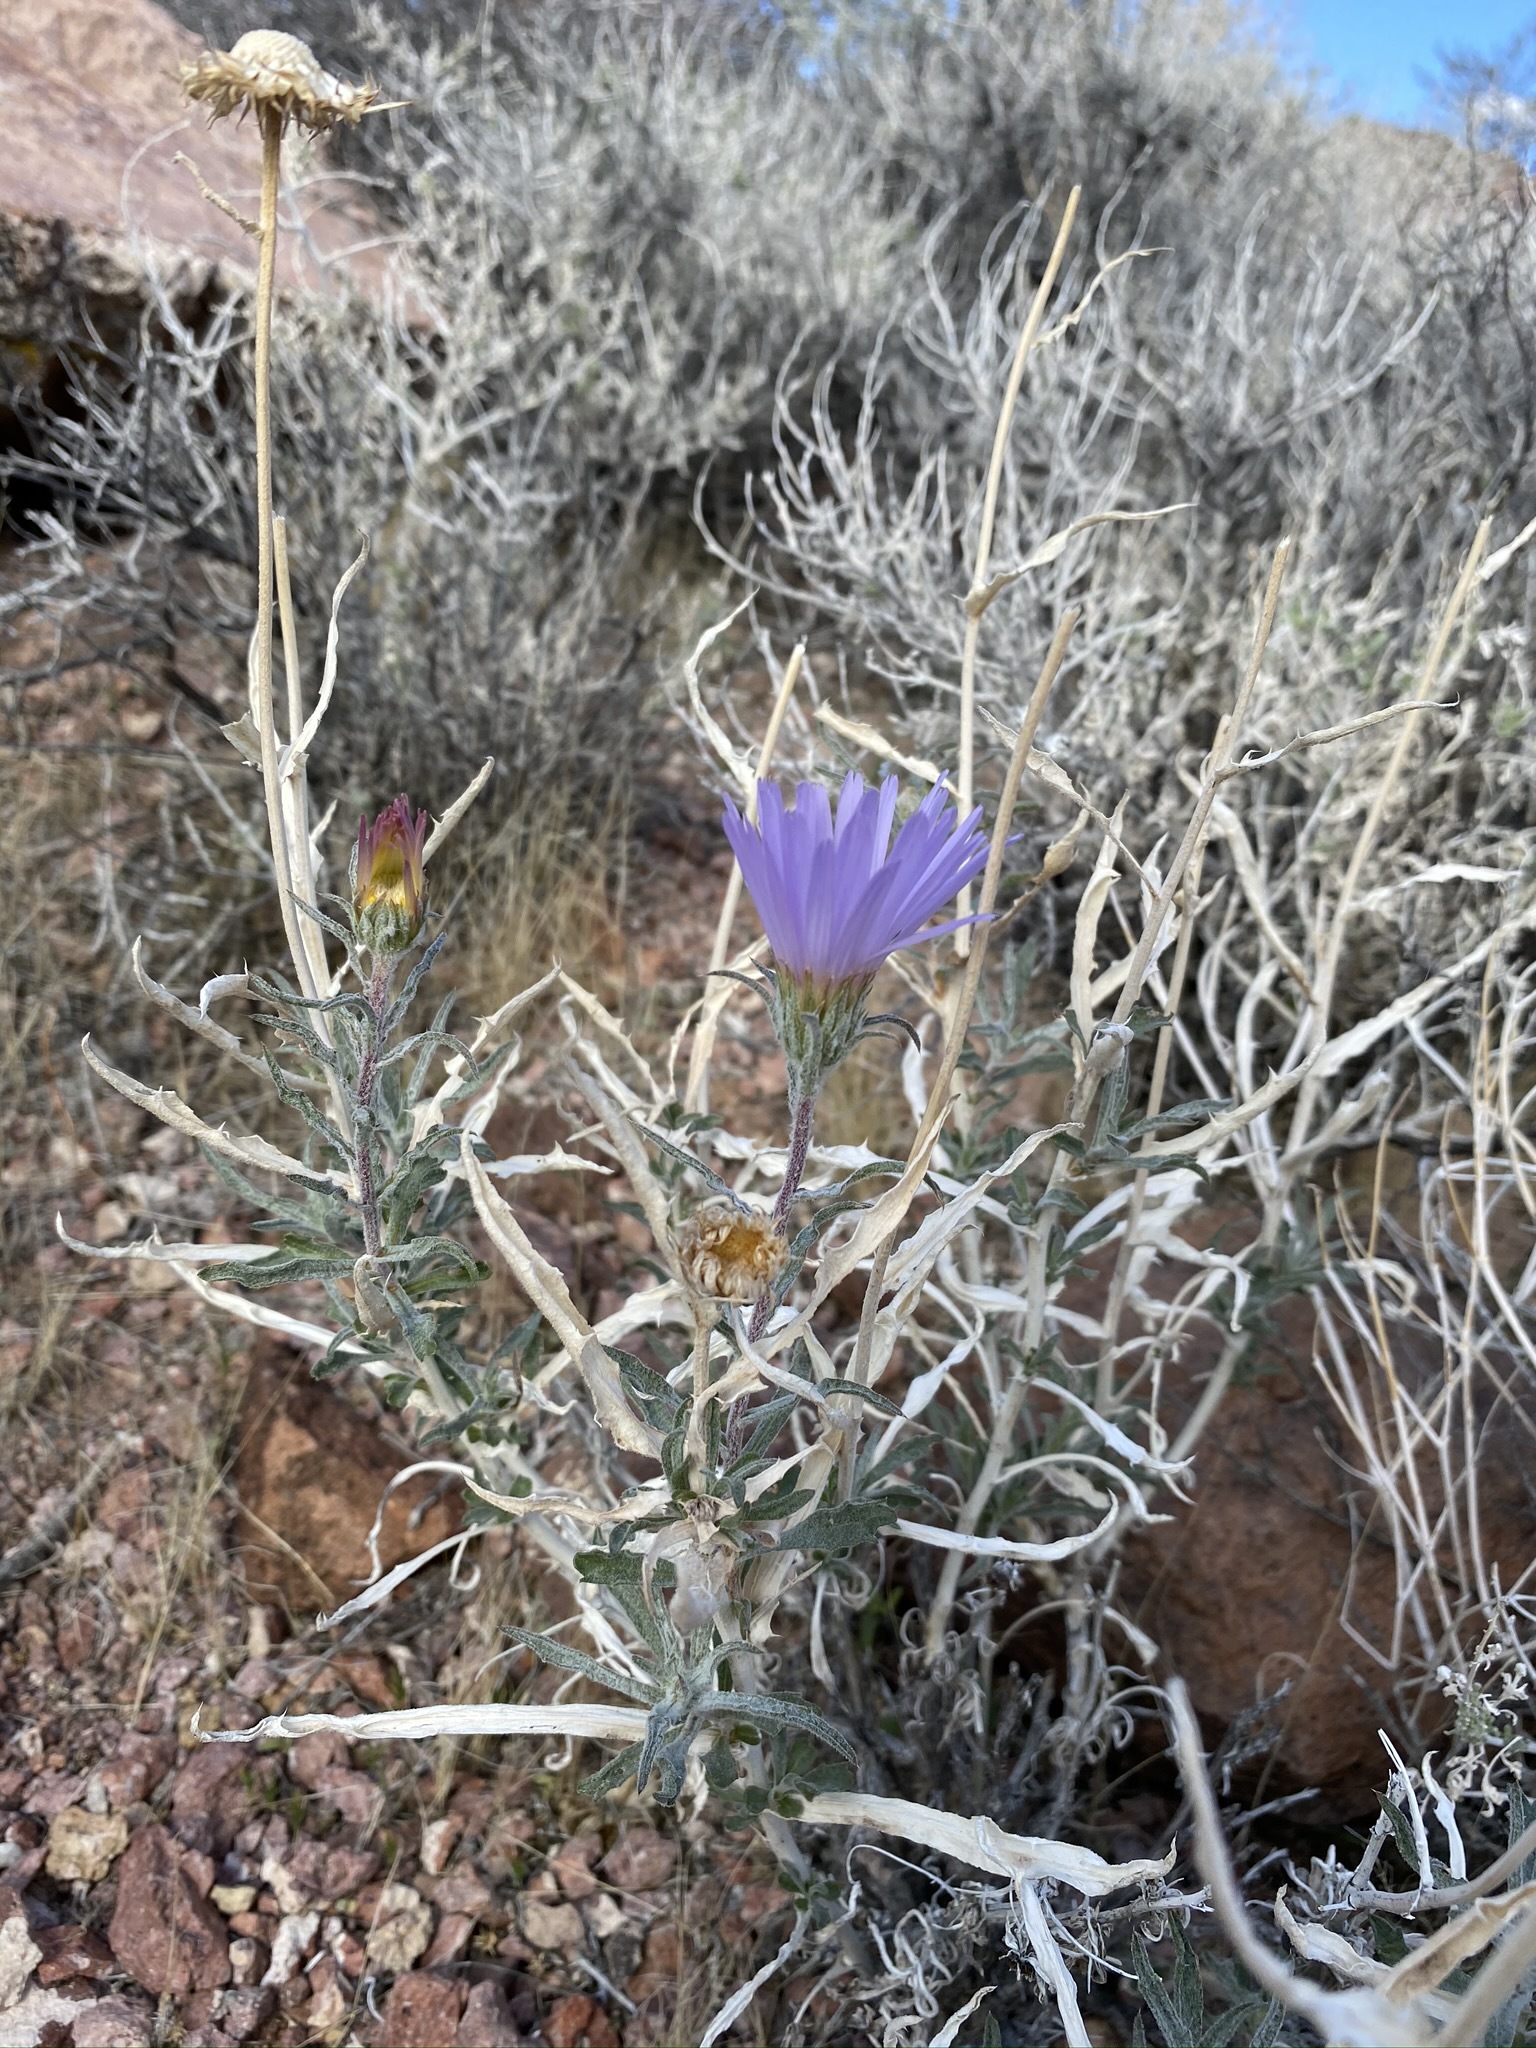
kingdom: Plantae
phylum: Tracheophyta
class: Magnoliopsida
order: Asterales
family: Asteraceae
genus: Xylorhiza
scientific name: Xylorhiza tortifolia
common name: Hurt-leaf woody-aster
